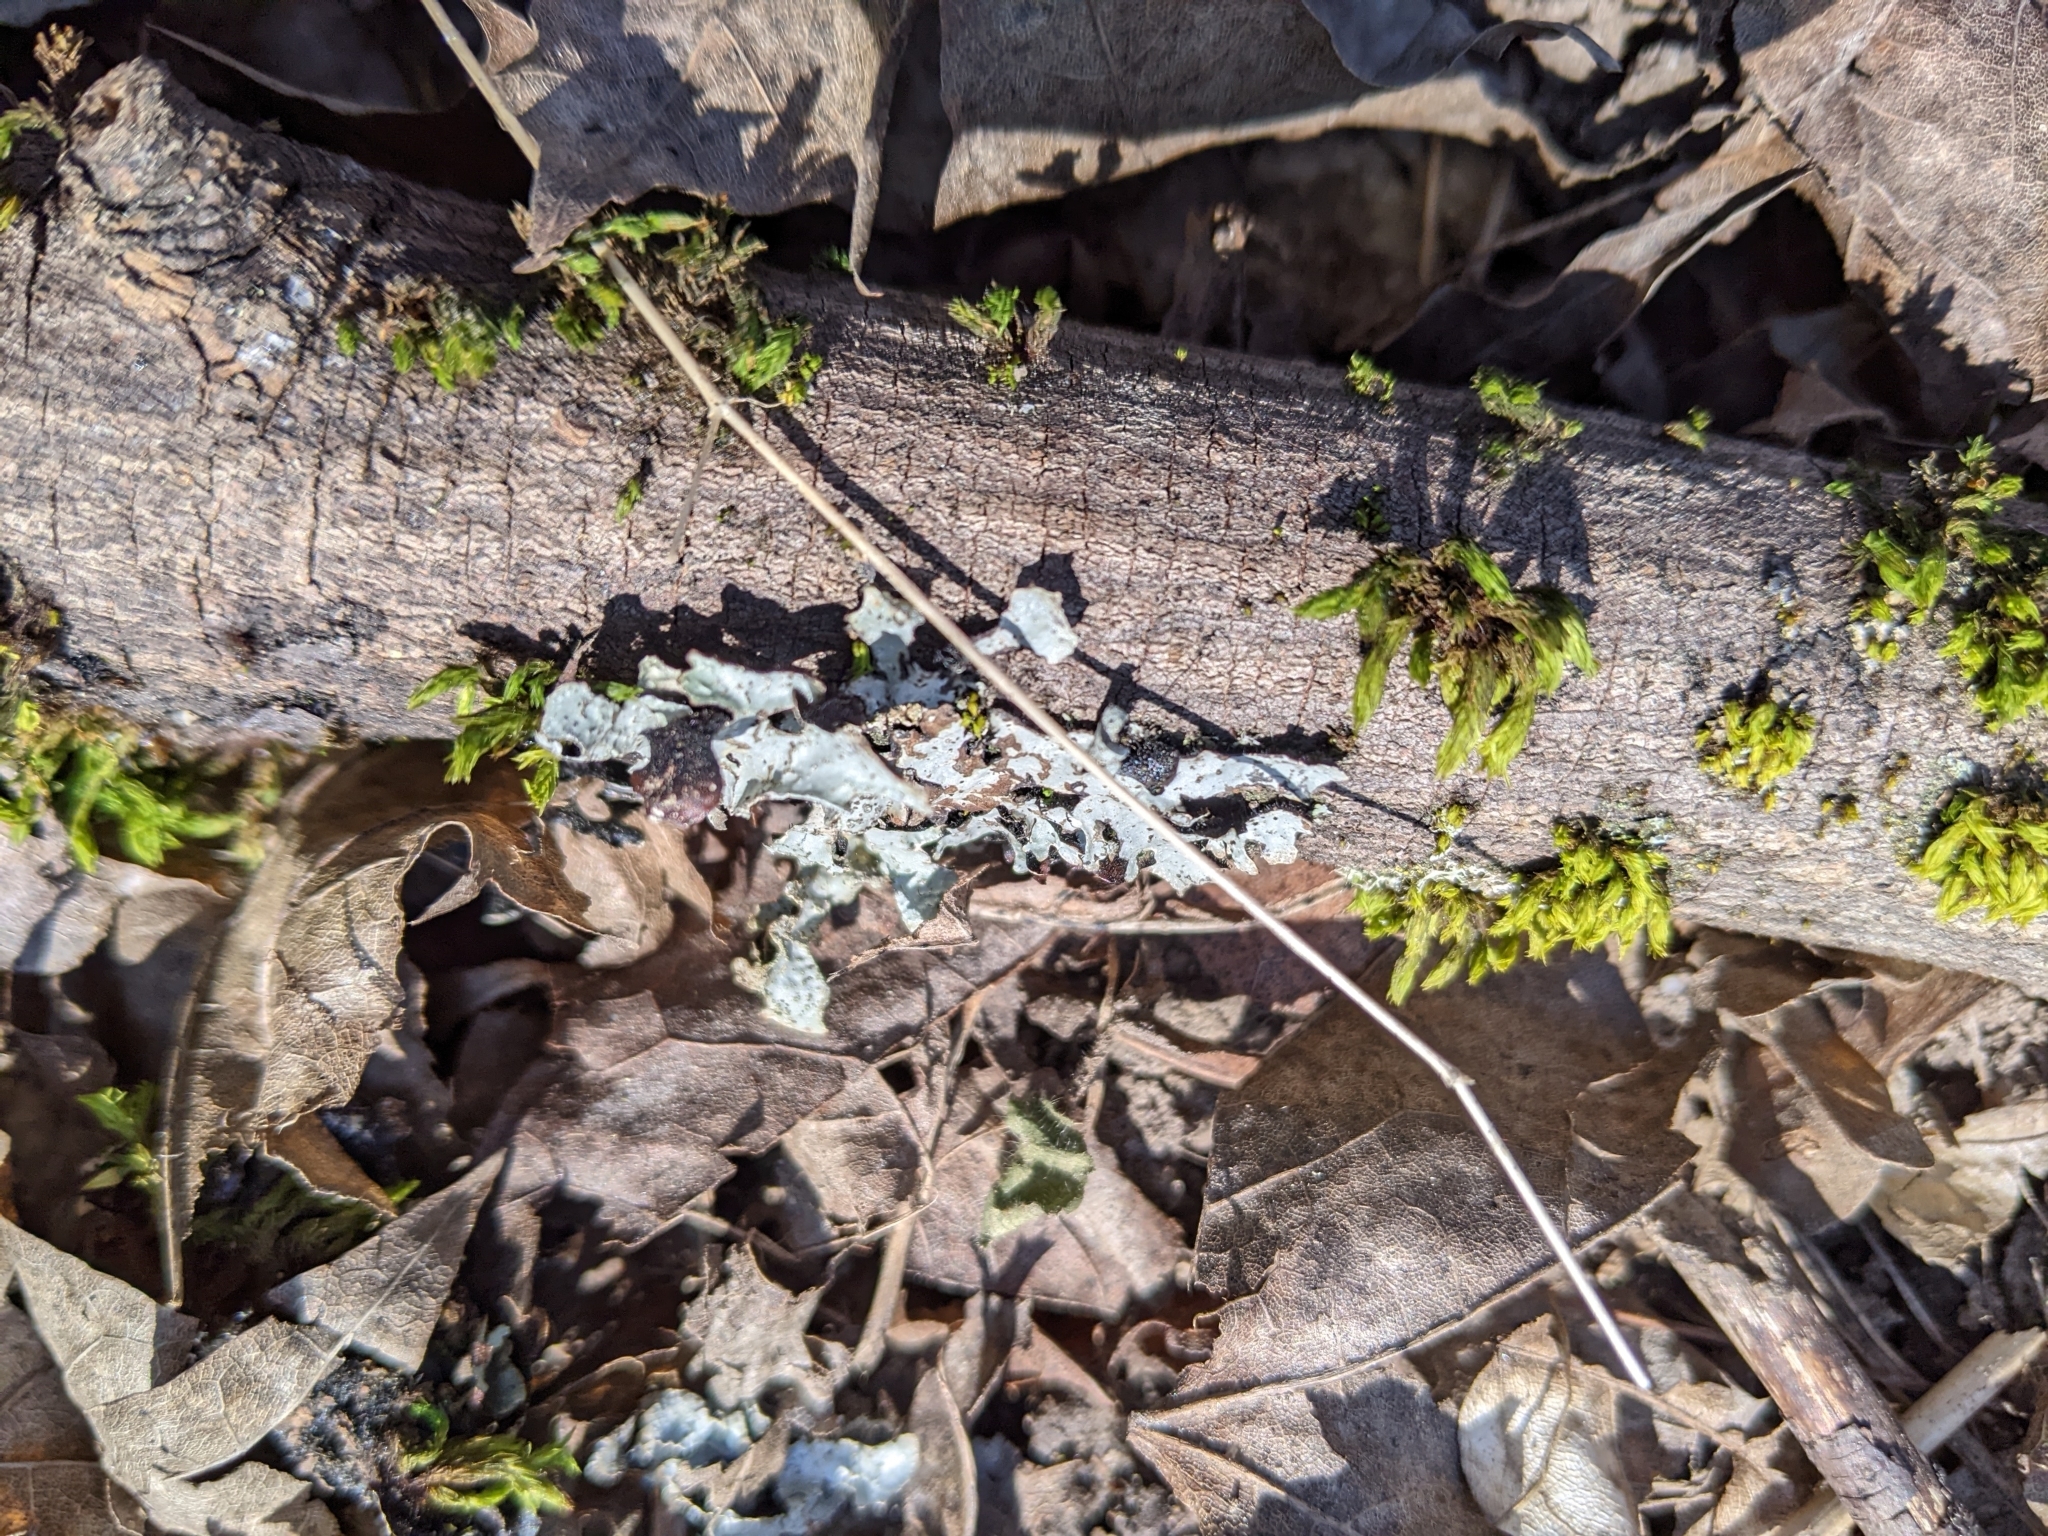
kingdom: Fungi
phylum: Ascomycota
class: Lecanoromycetes
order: Lecanorales
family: Parmeliaceae
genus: Parmelia
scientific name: Parmelia sulcata
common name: Netted shield lichen
